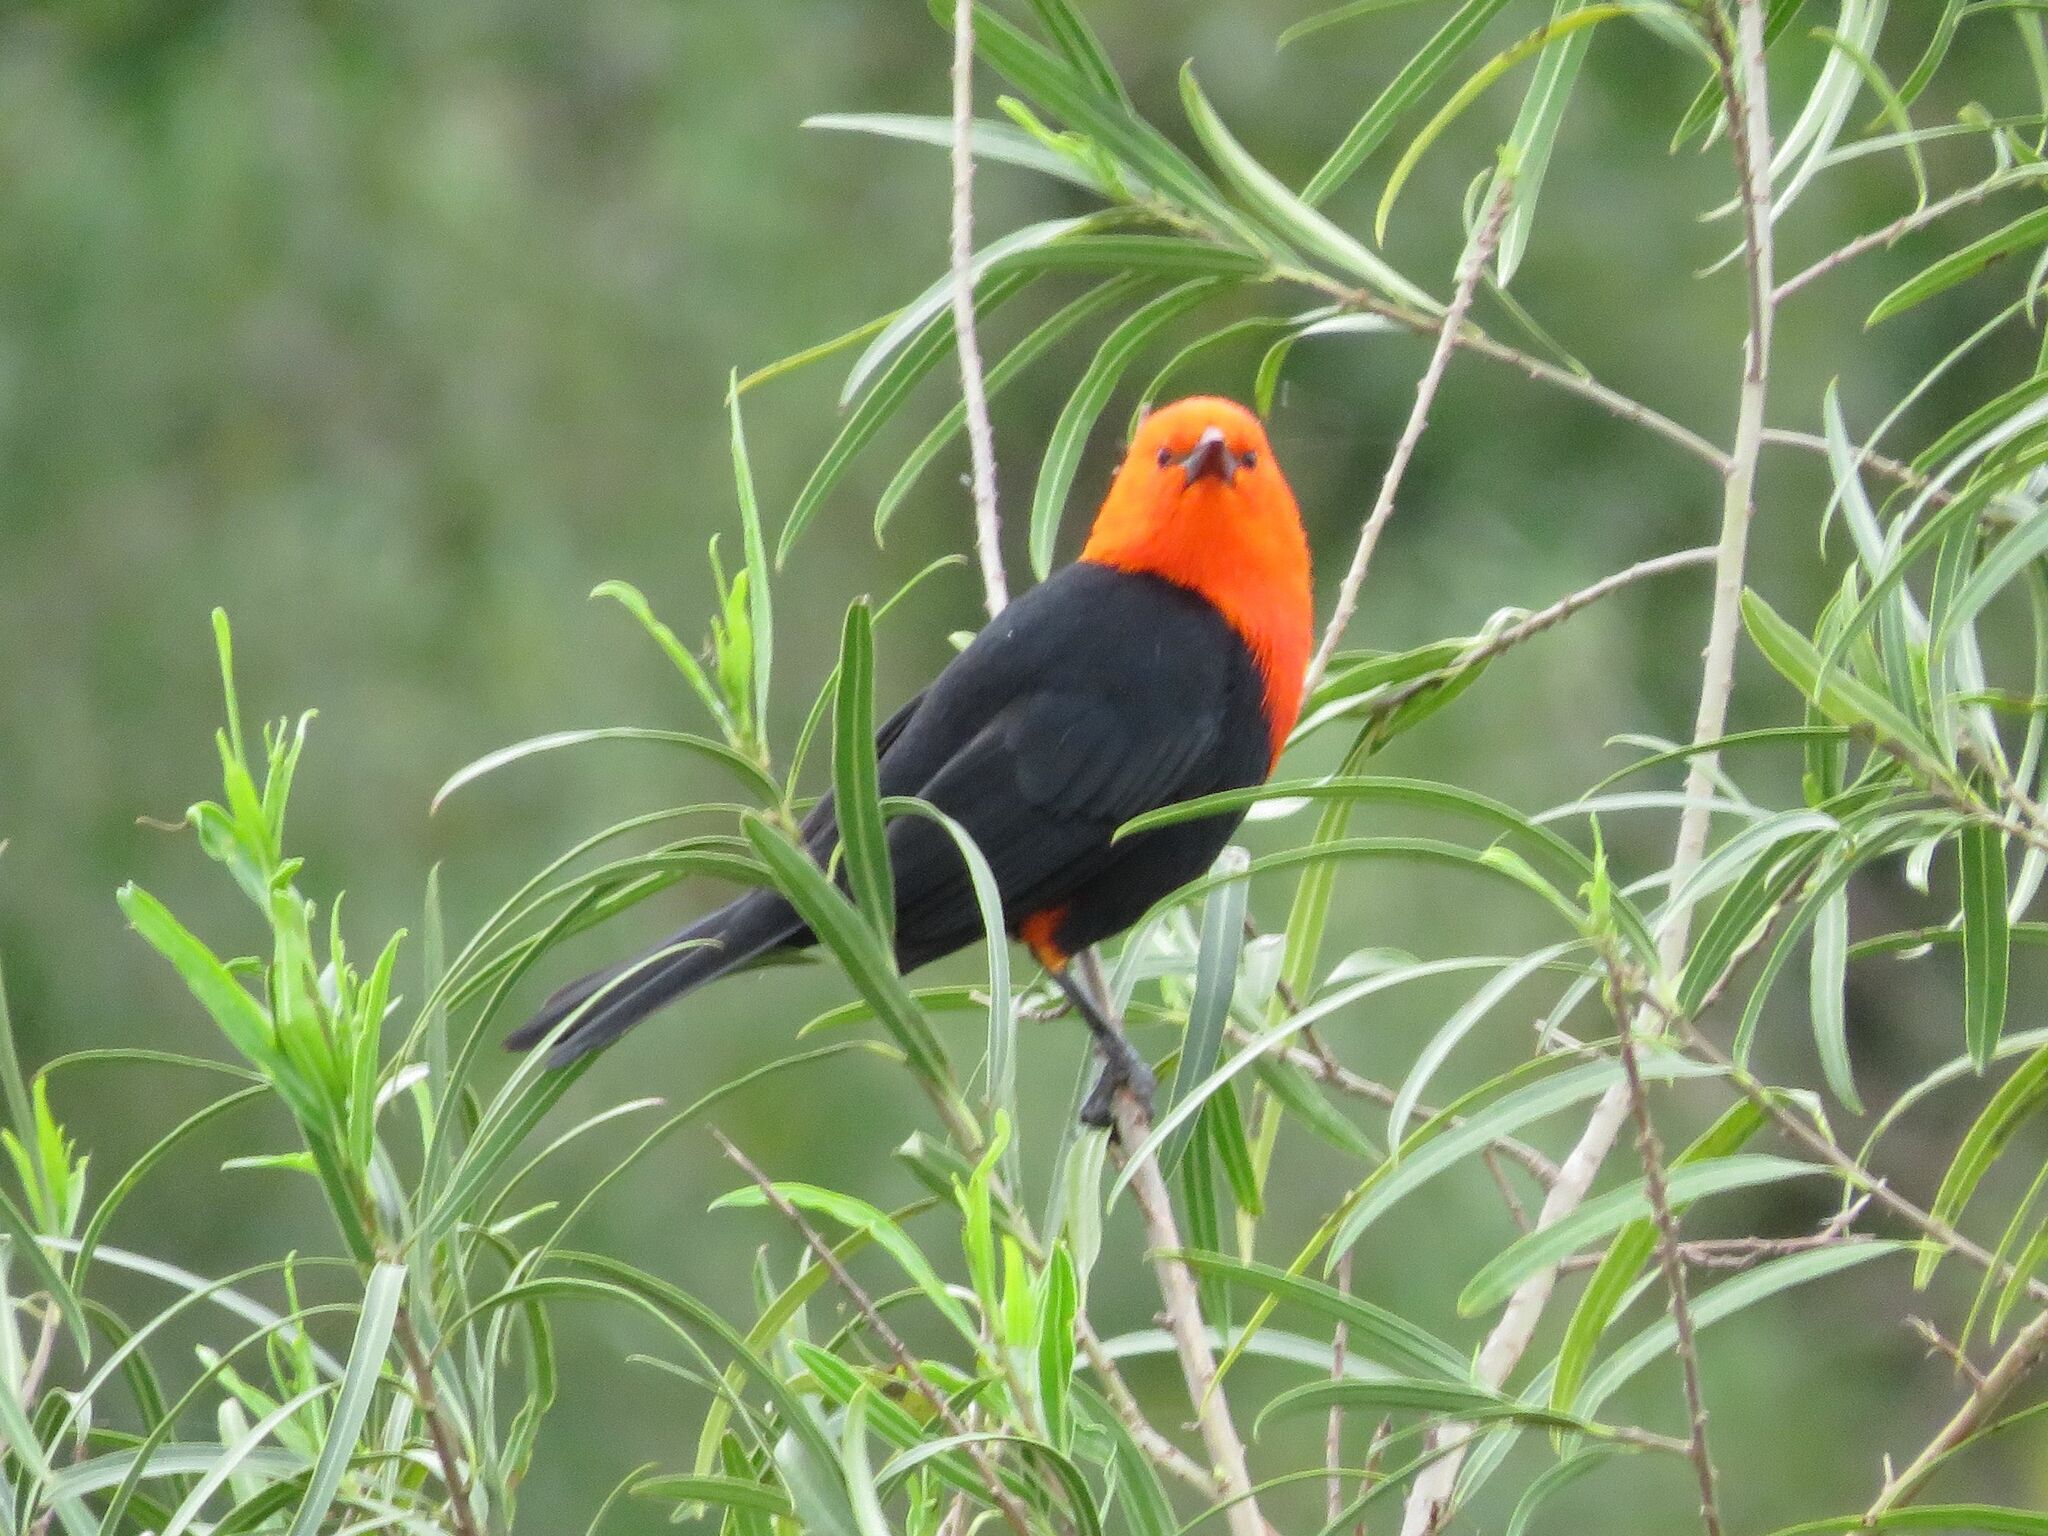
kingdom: Animalia
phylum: Chordata
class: Aves
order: Passeriformes
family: Icteridae
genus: Amblyramphus
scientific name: Amblyramphus holosericeus
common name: Scarlet-headed blackbird
